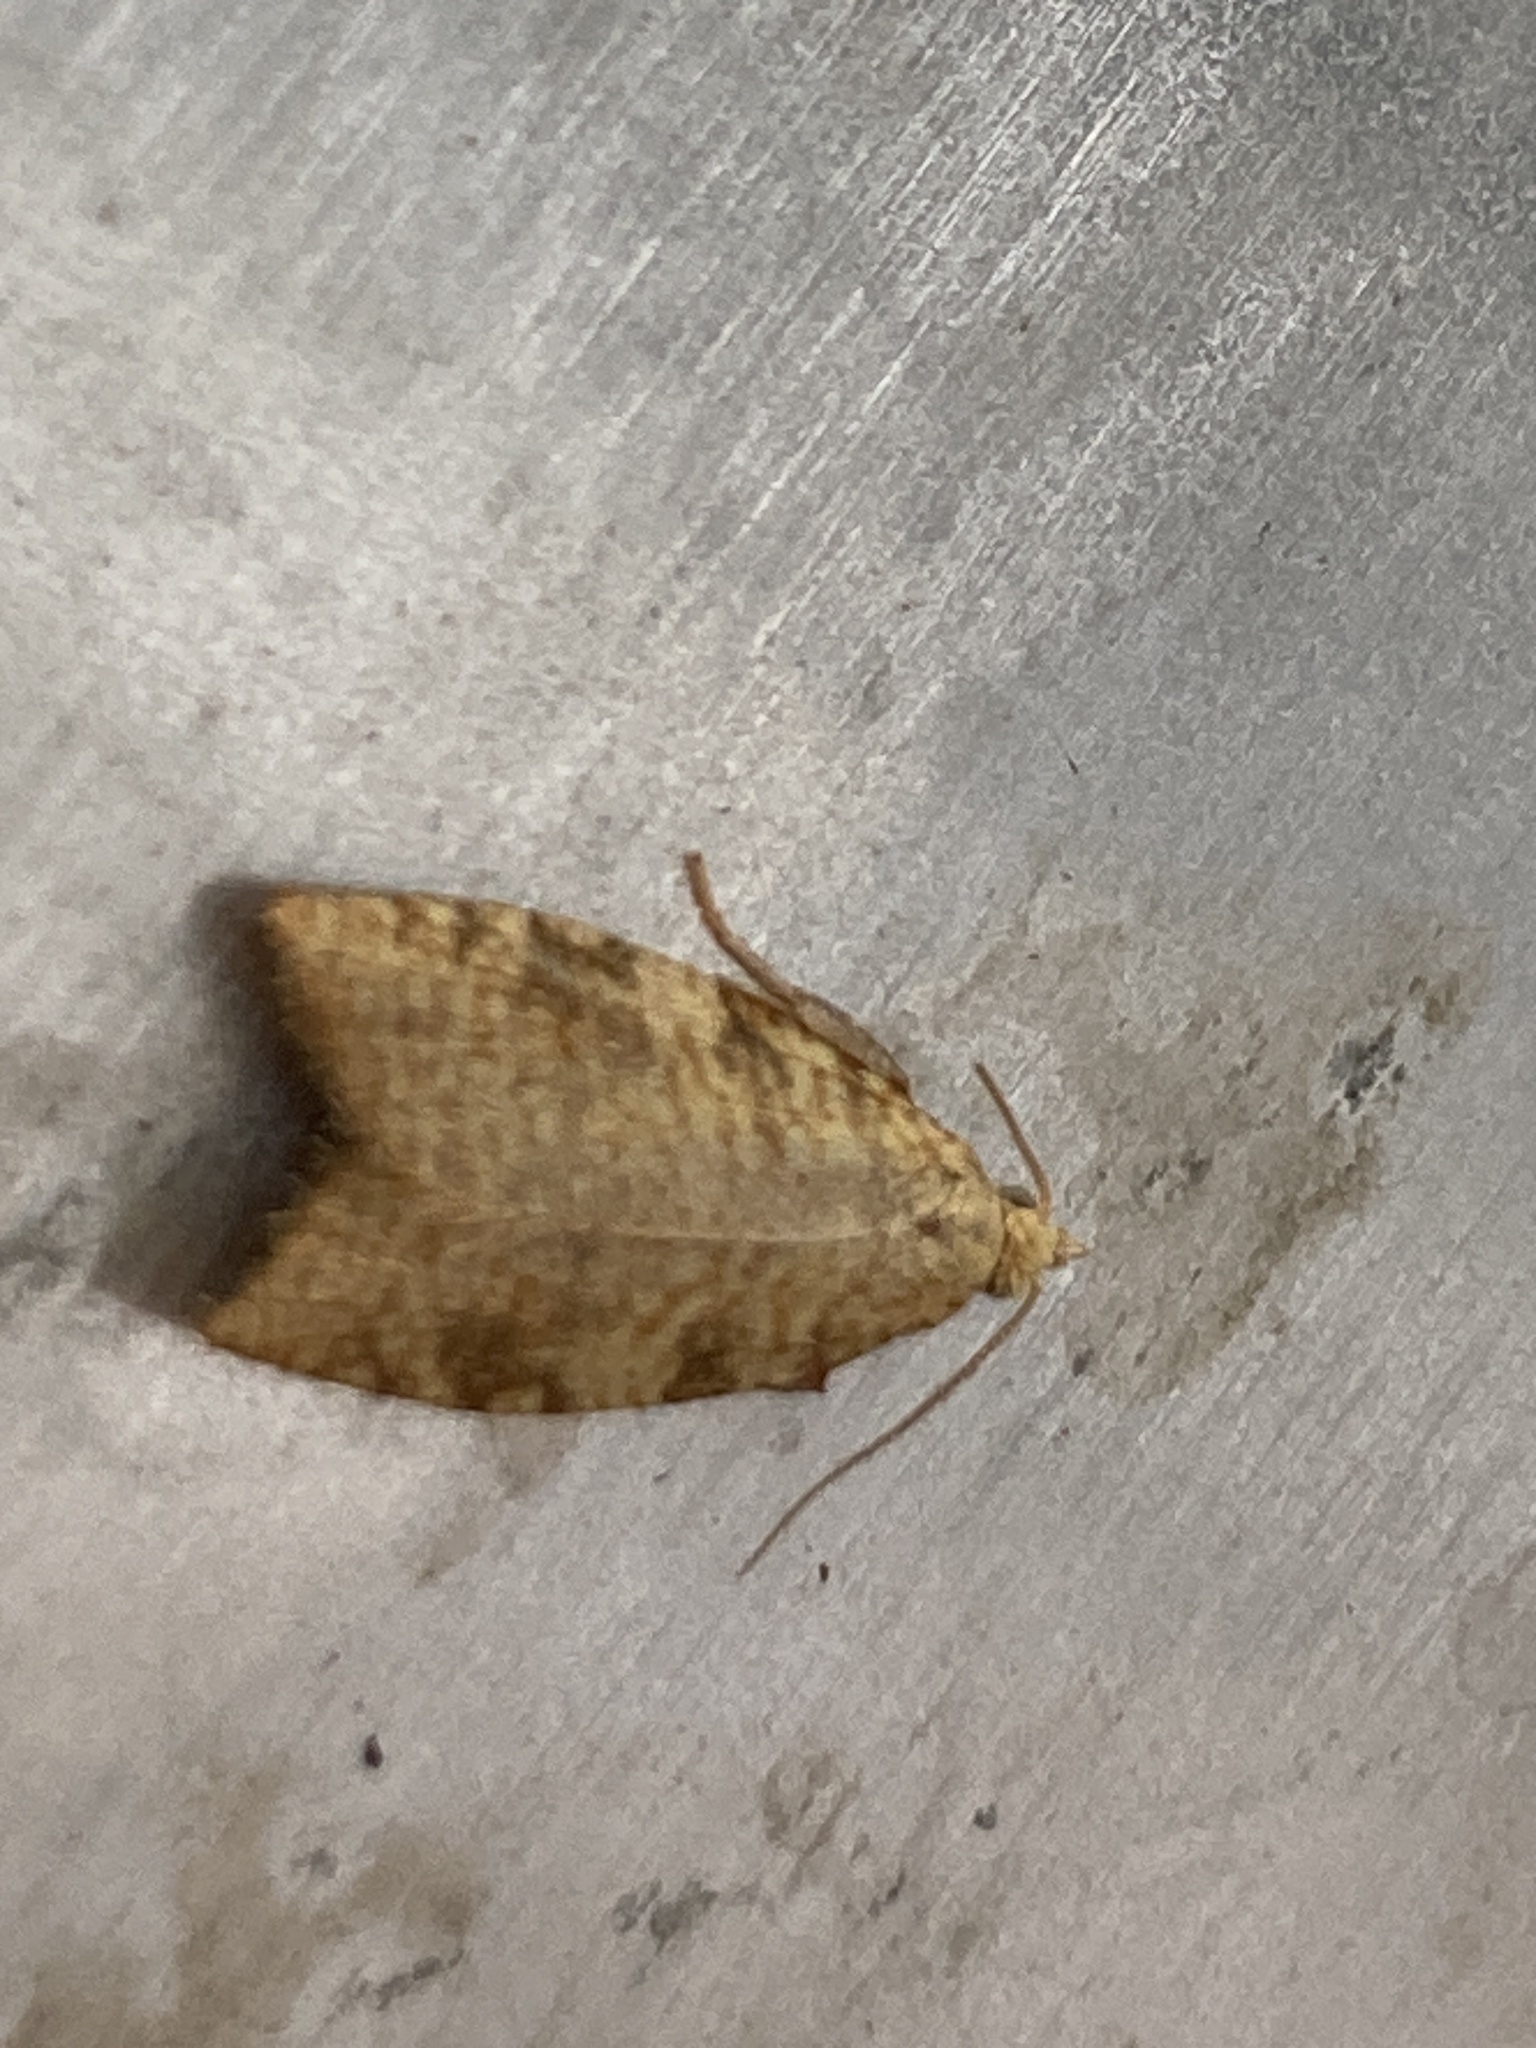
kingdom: Animalia
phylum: Arthropoda
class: Insecta
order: Lepidoptera
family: Tortricidae
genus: Aleimma
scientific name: Aleimma loeflingiana
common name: Yellow oak button
